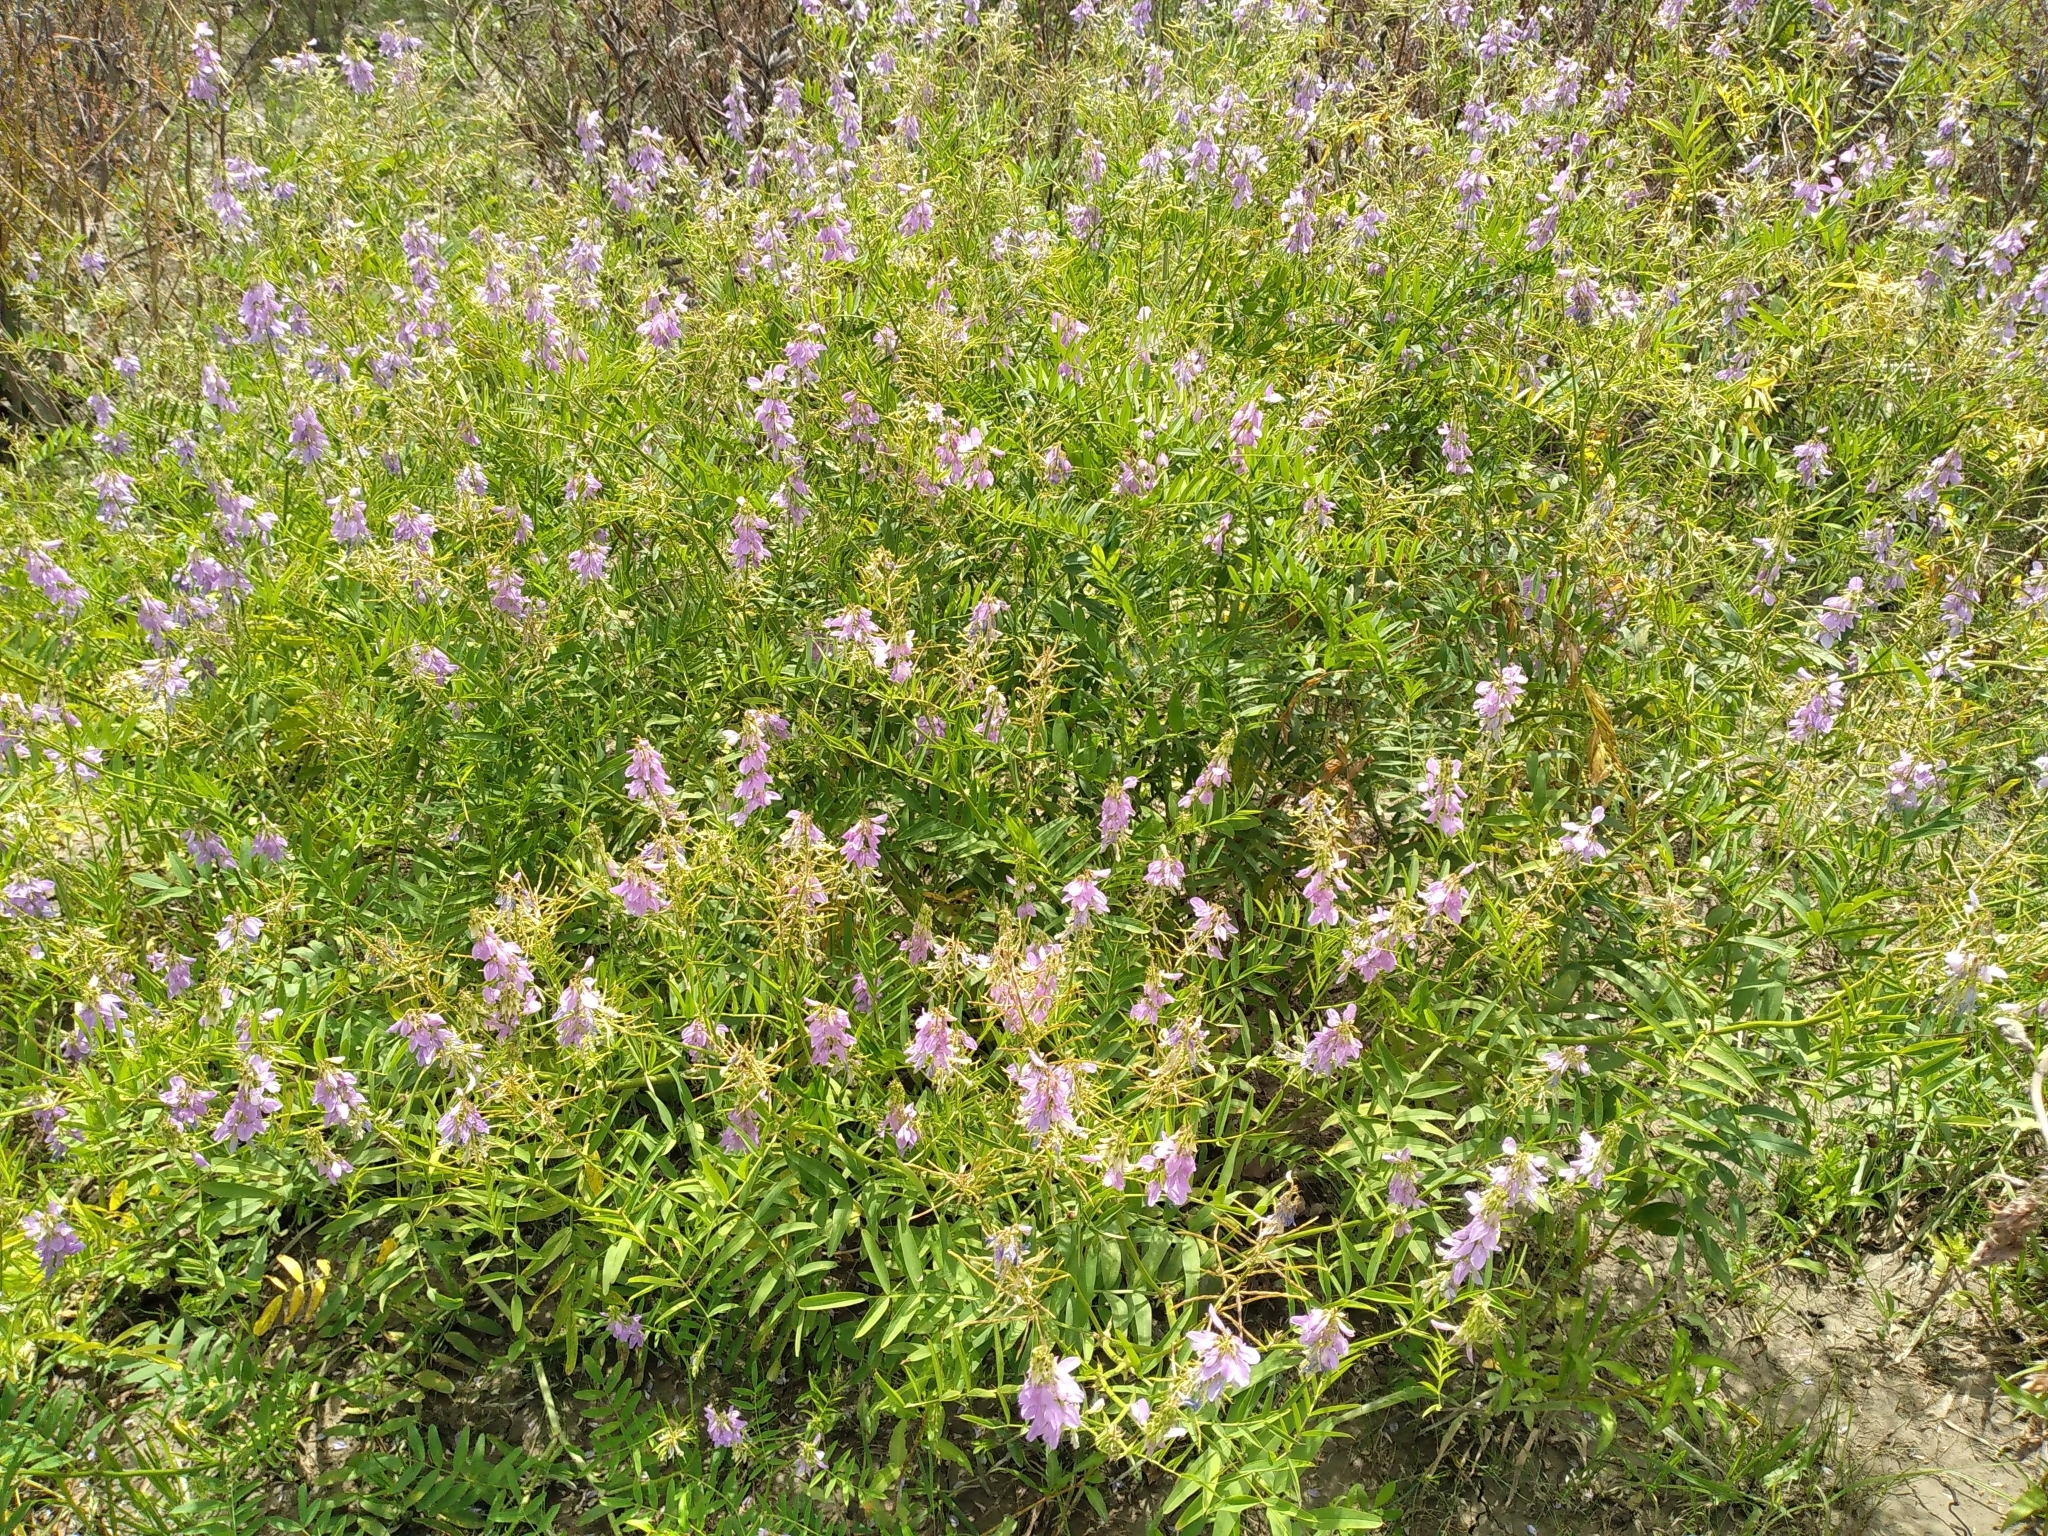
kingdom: Plantae
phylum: Tracheophyta
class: Magnoliopsida
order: Fabales
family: Fabaceae
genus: Galega
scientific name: Galega officinalis
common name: Goat's-rue
